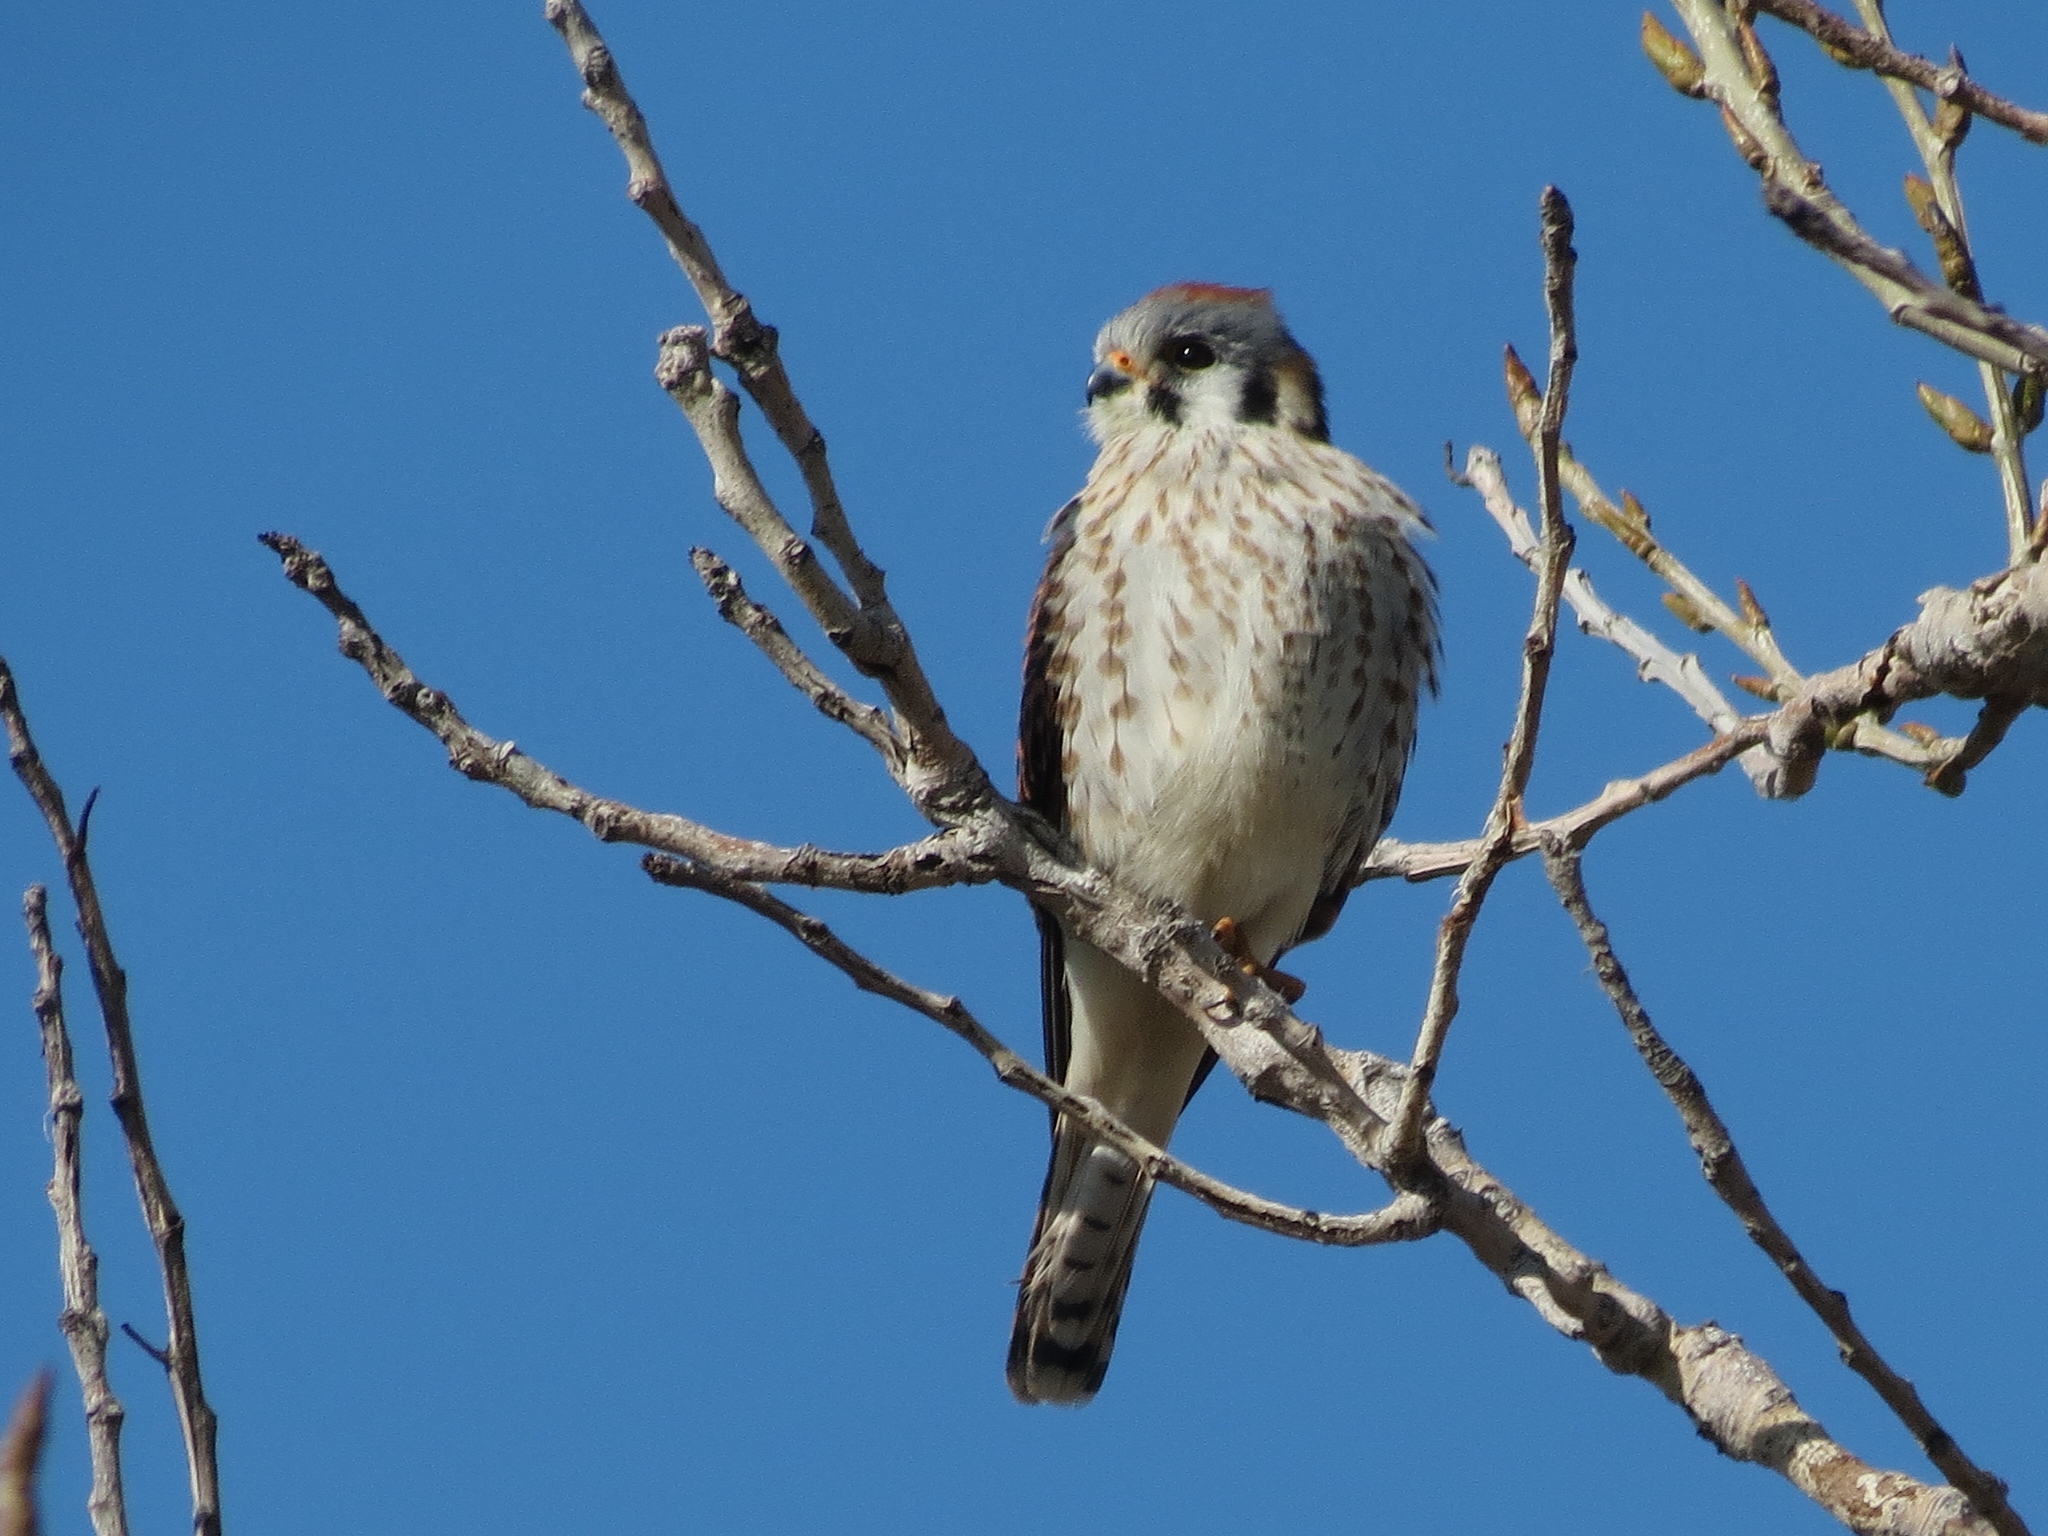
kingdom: Animalia
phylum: Chordata
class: Aves
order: Falconiformes
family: Falconidae
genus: Falco
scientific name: Falco sparverius
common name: American kestrel
